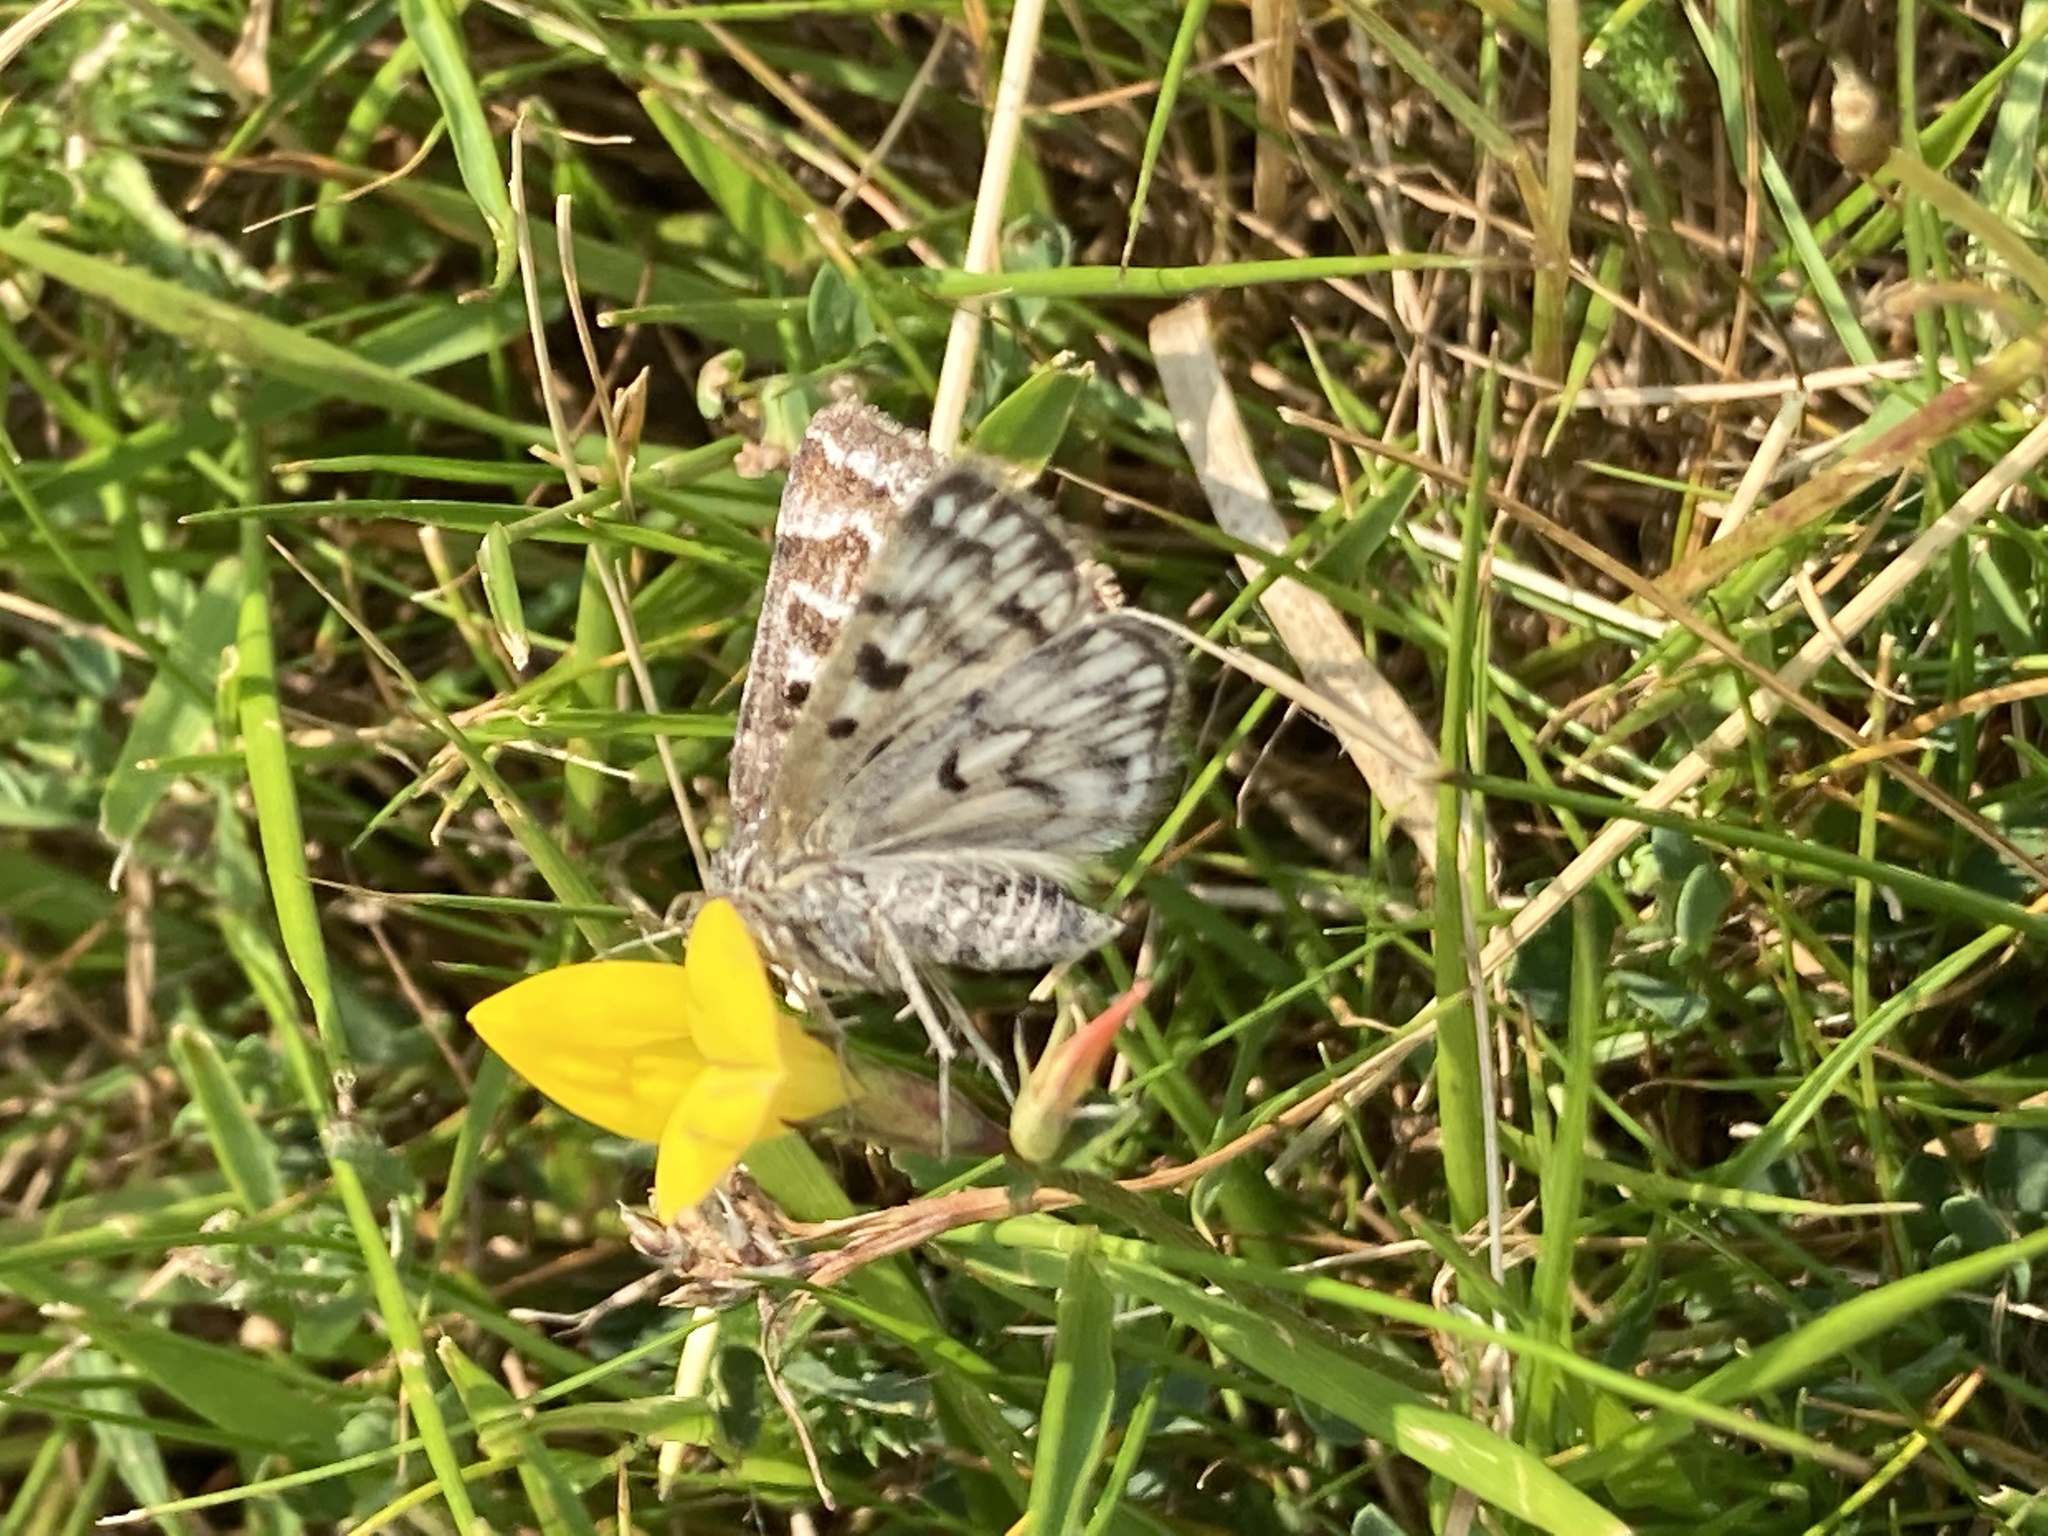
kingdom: Animalia
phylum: Arthropoda
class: Insecta
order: Lepidoptera
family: Erebidae
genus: Callistege
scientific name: Callistege mi
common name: Mother shipton
